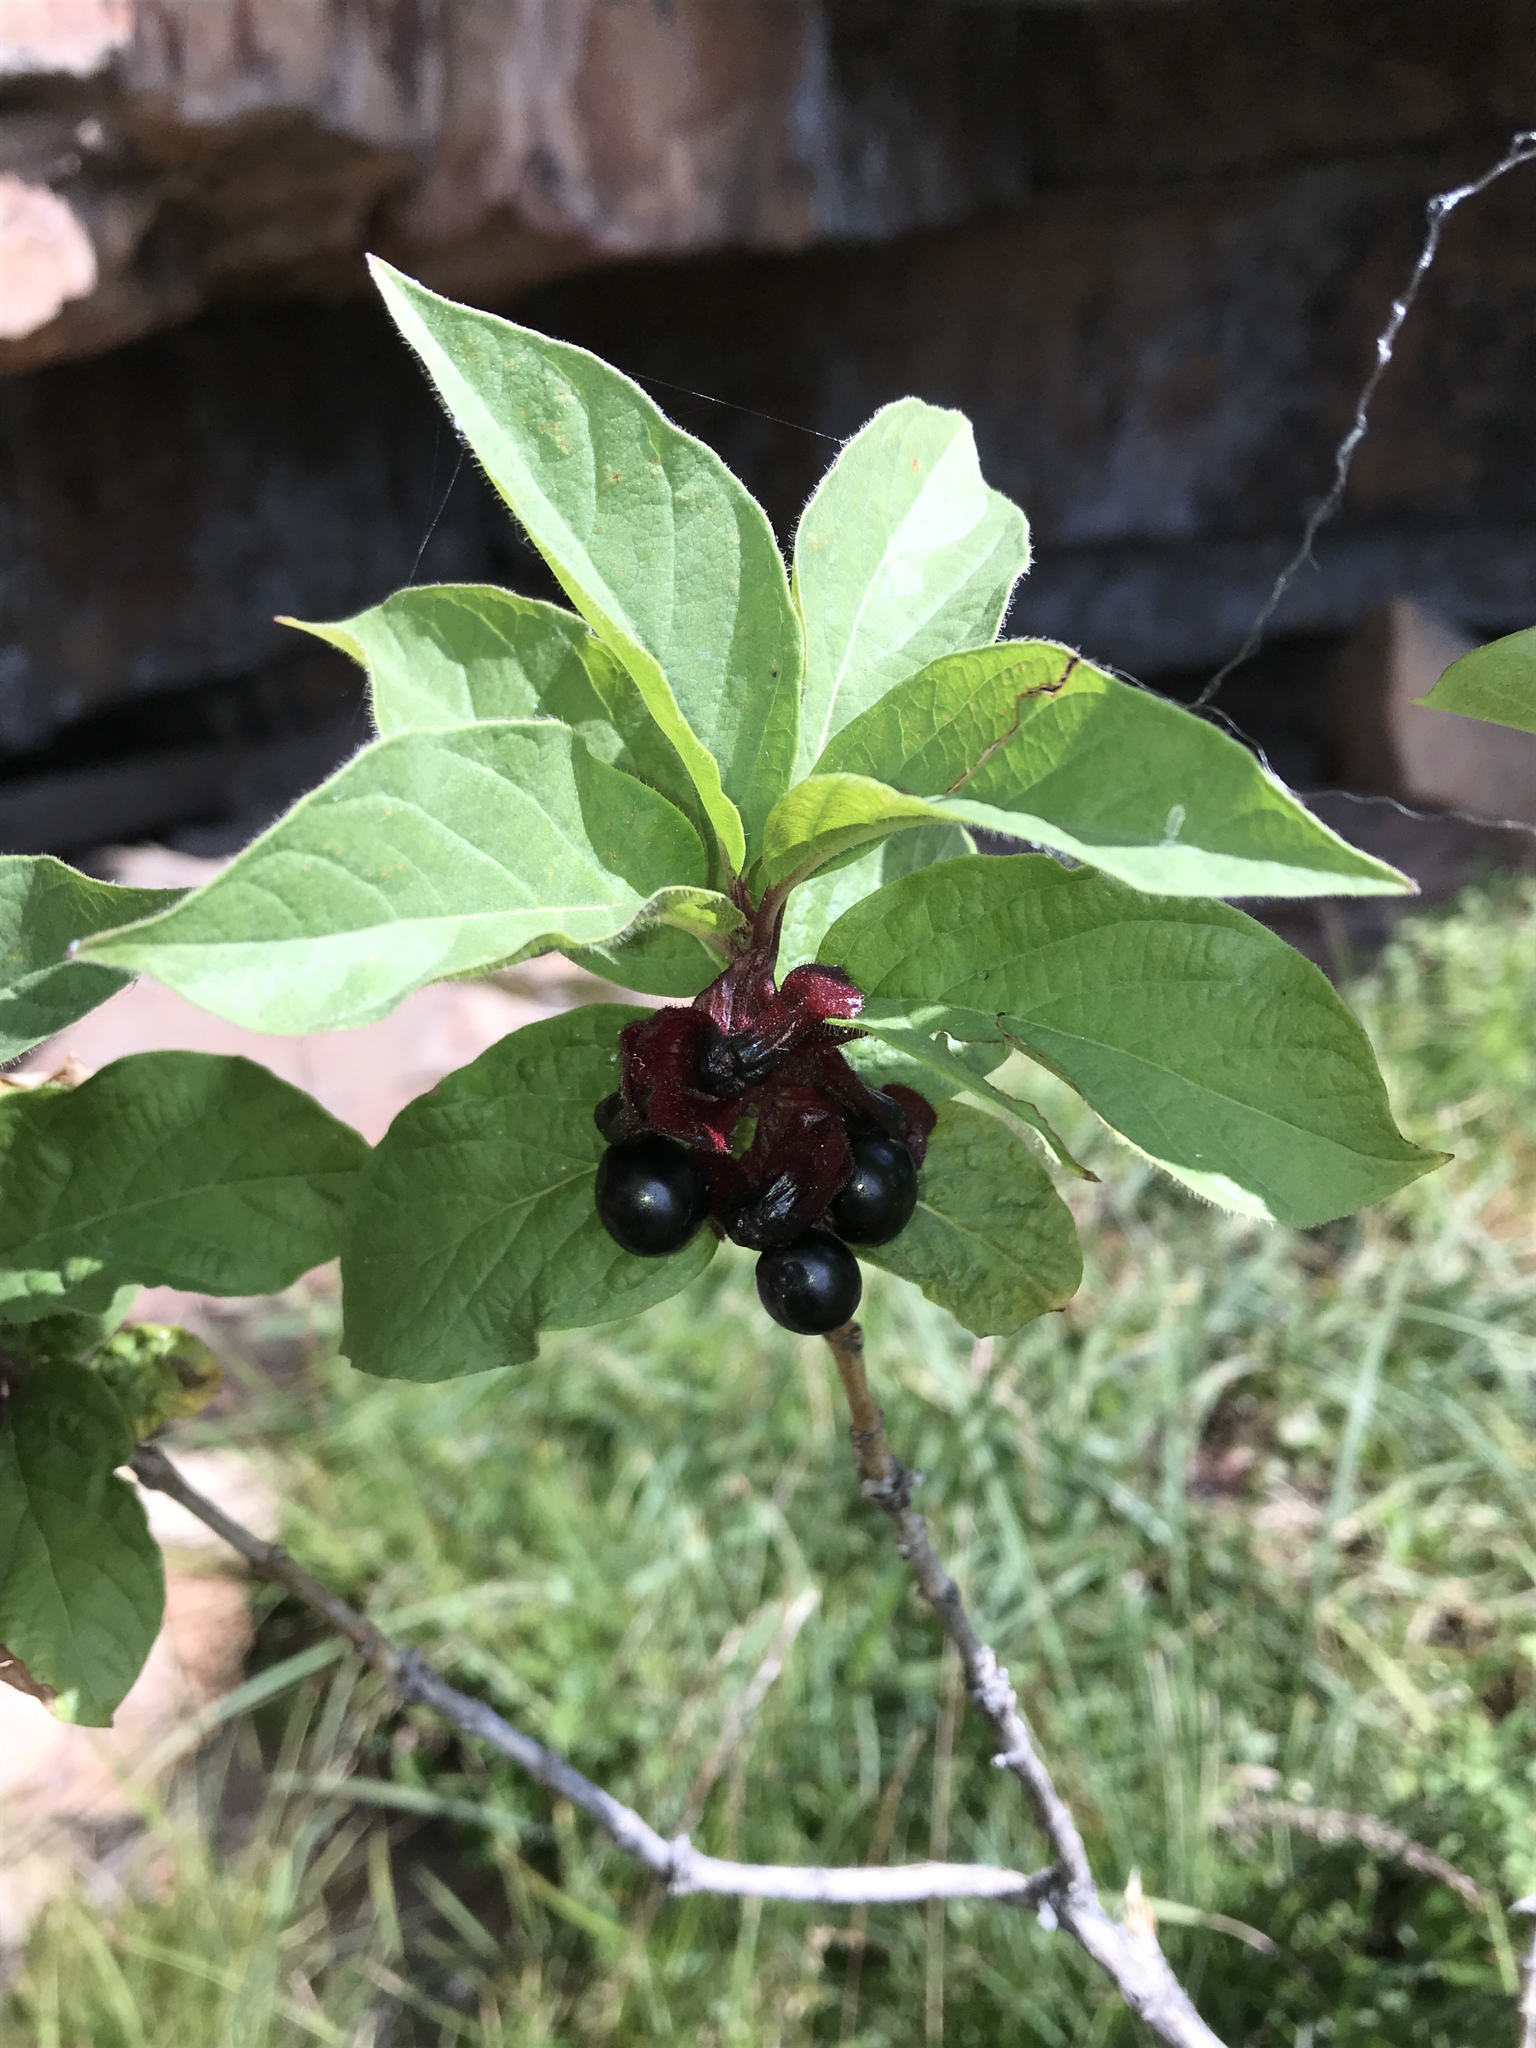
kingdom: Plantae
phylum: Tracheophyta
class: Magnoliopsida
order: Dipsacales
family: Caprifoliaceae
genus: Lonicera
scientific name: Lonicera involucrata
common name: Californian honeysuckle
